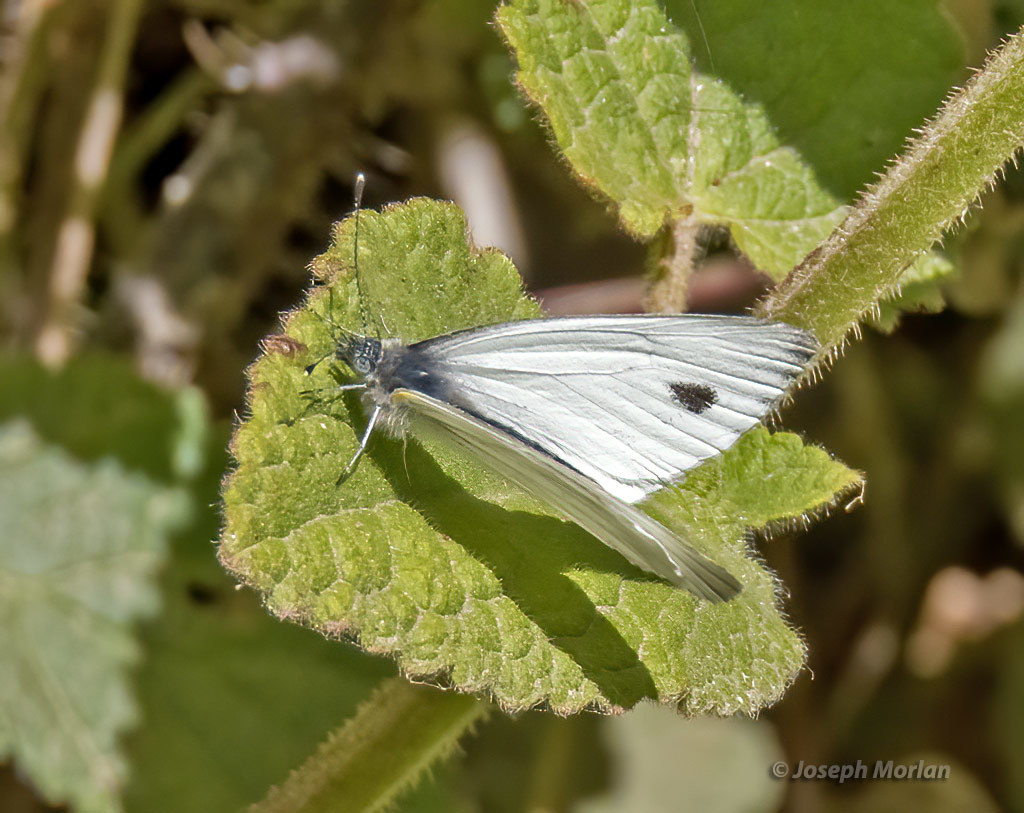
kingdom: Animalia
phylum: Arthropoda
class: Insecta
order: Lepidoptera
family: Pieridae
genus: Pieris
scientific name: Pieris marginalis
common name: Margined white
